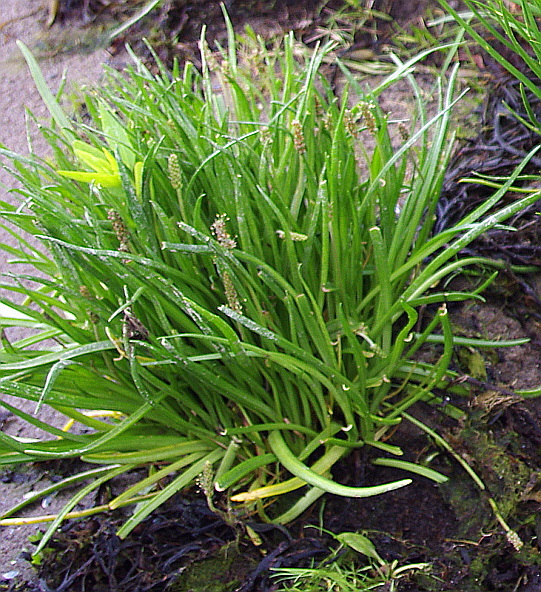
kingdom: Plantae
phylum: Tracheophyta
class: Magnoliopsida
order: Lamiales
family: Plantaginaceae
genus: Plantago
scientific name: Plantago maritima
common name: Sea plantain
